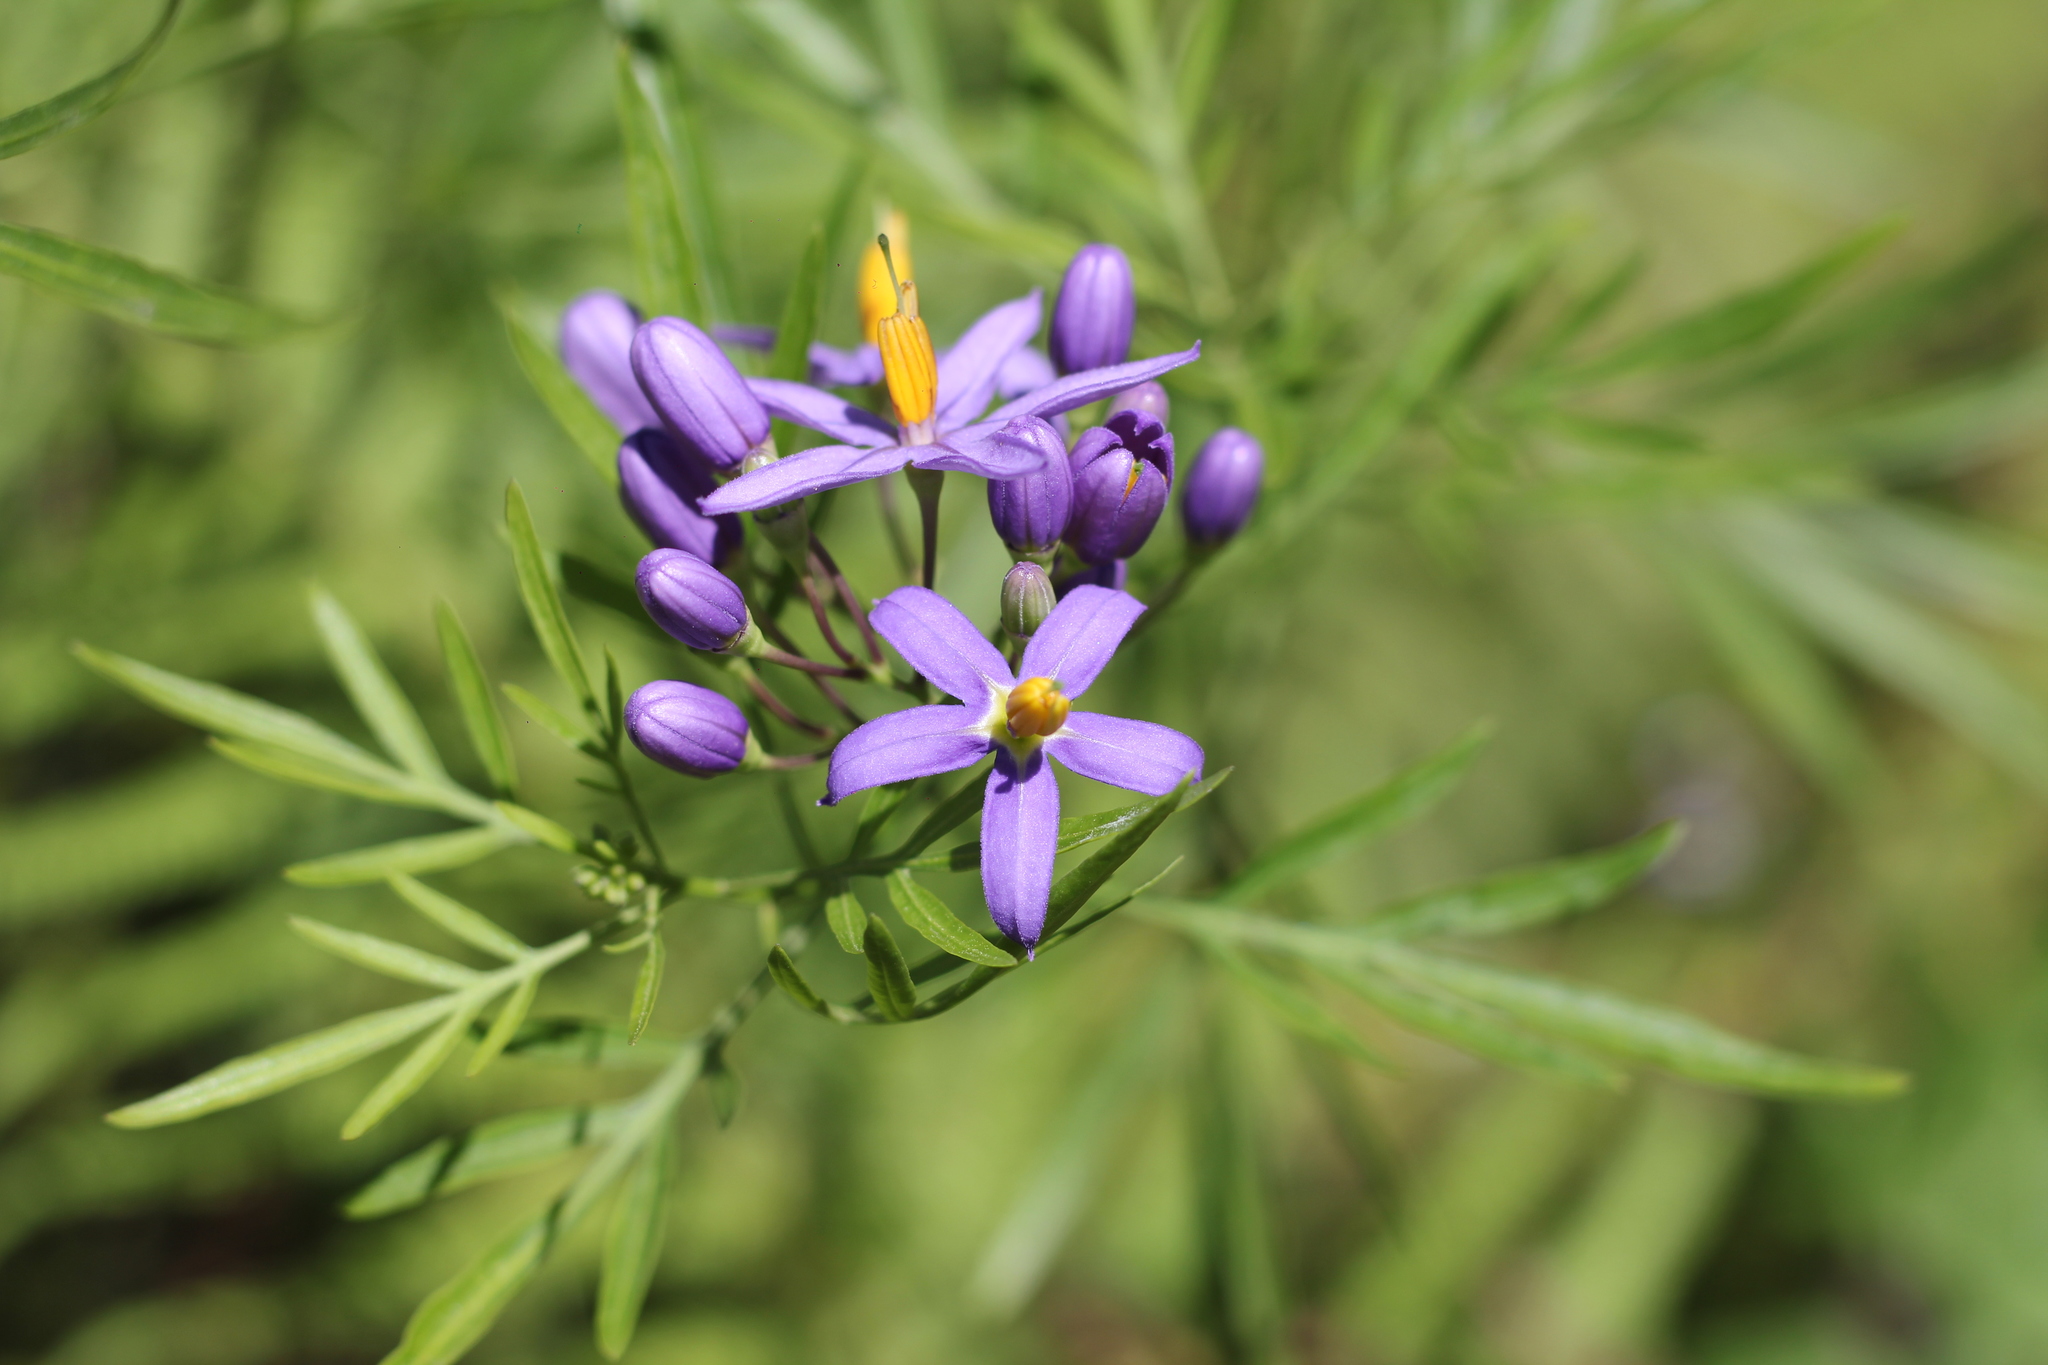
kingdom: Plantae
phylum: Tracheophyta
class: Magnoliopsida
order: Solanales
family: Solanaceae
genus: Solanum
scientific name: Solanum angustifidum
